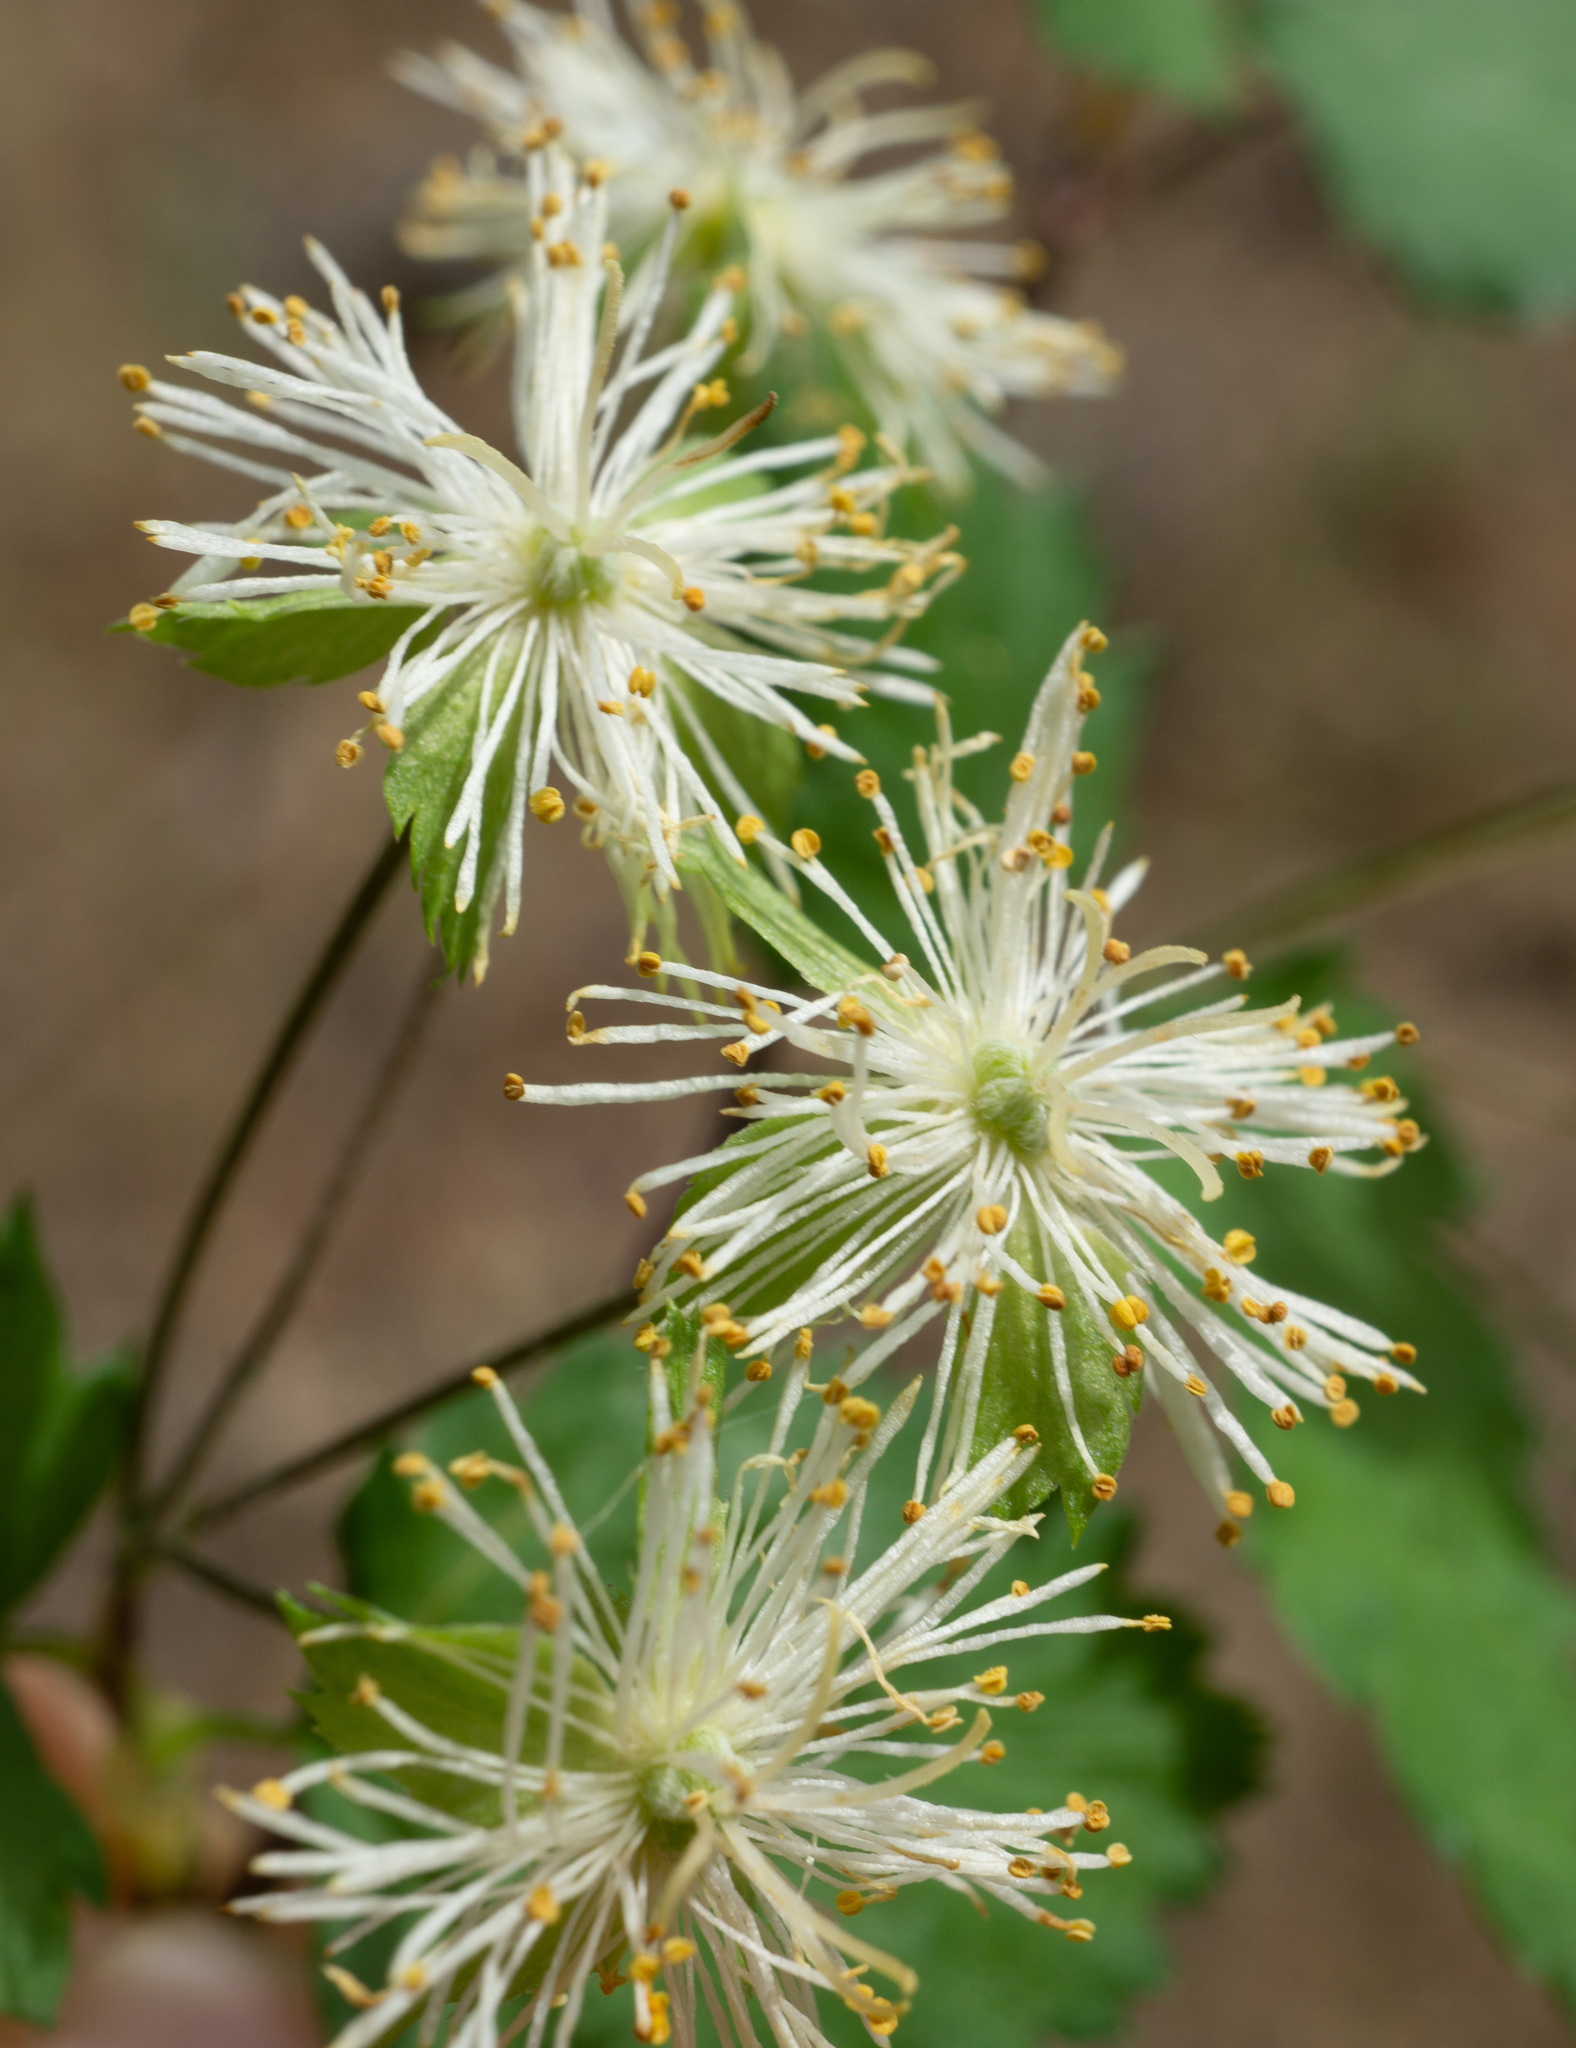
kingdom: Plantae
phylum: Tracheophyta
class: Magnoliopsida
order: Rosales
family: Rosaceae
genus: Neviusia
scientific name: Neviusia cliftonii
